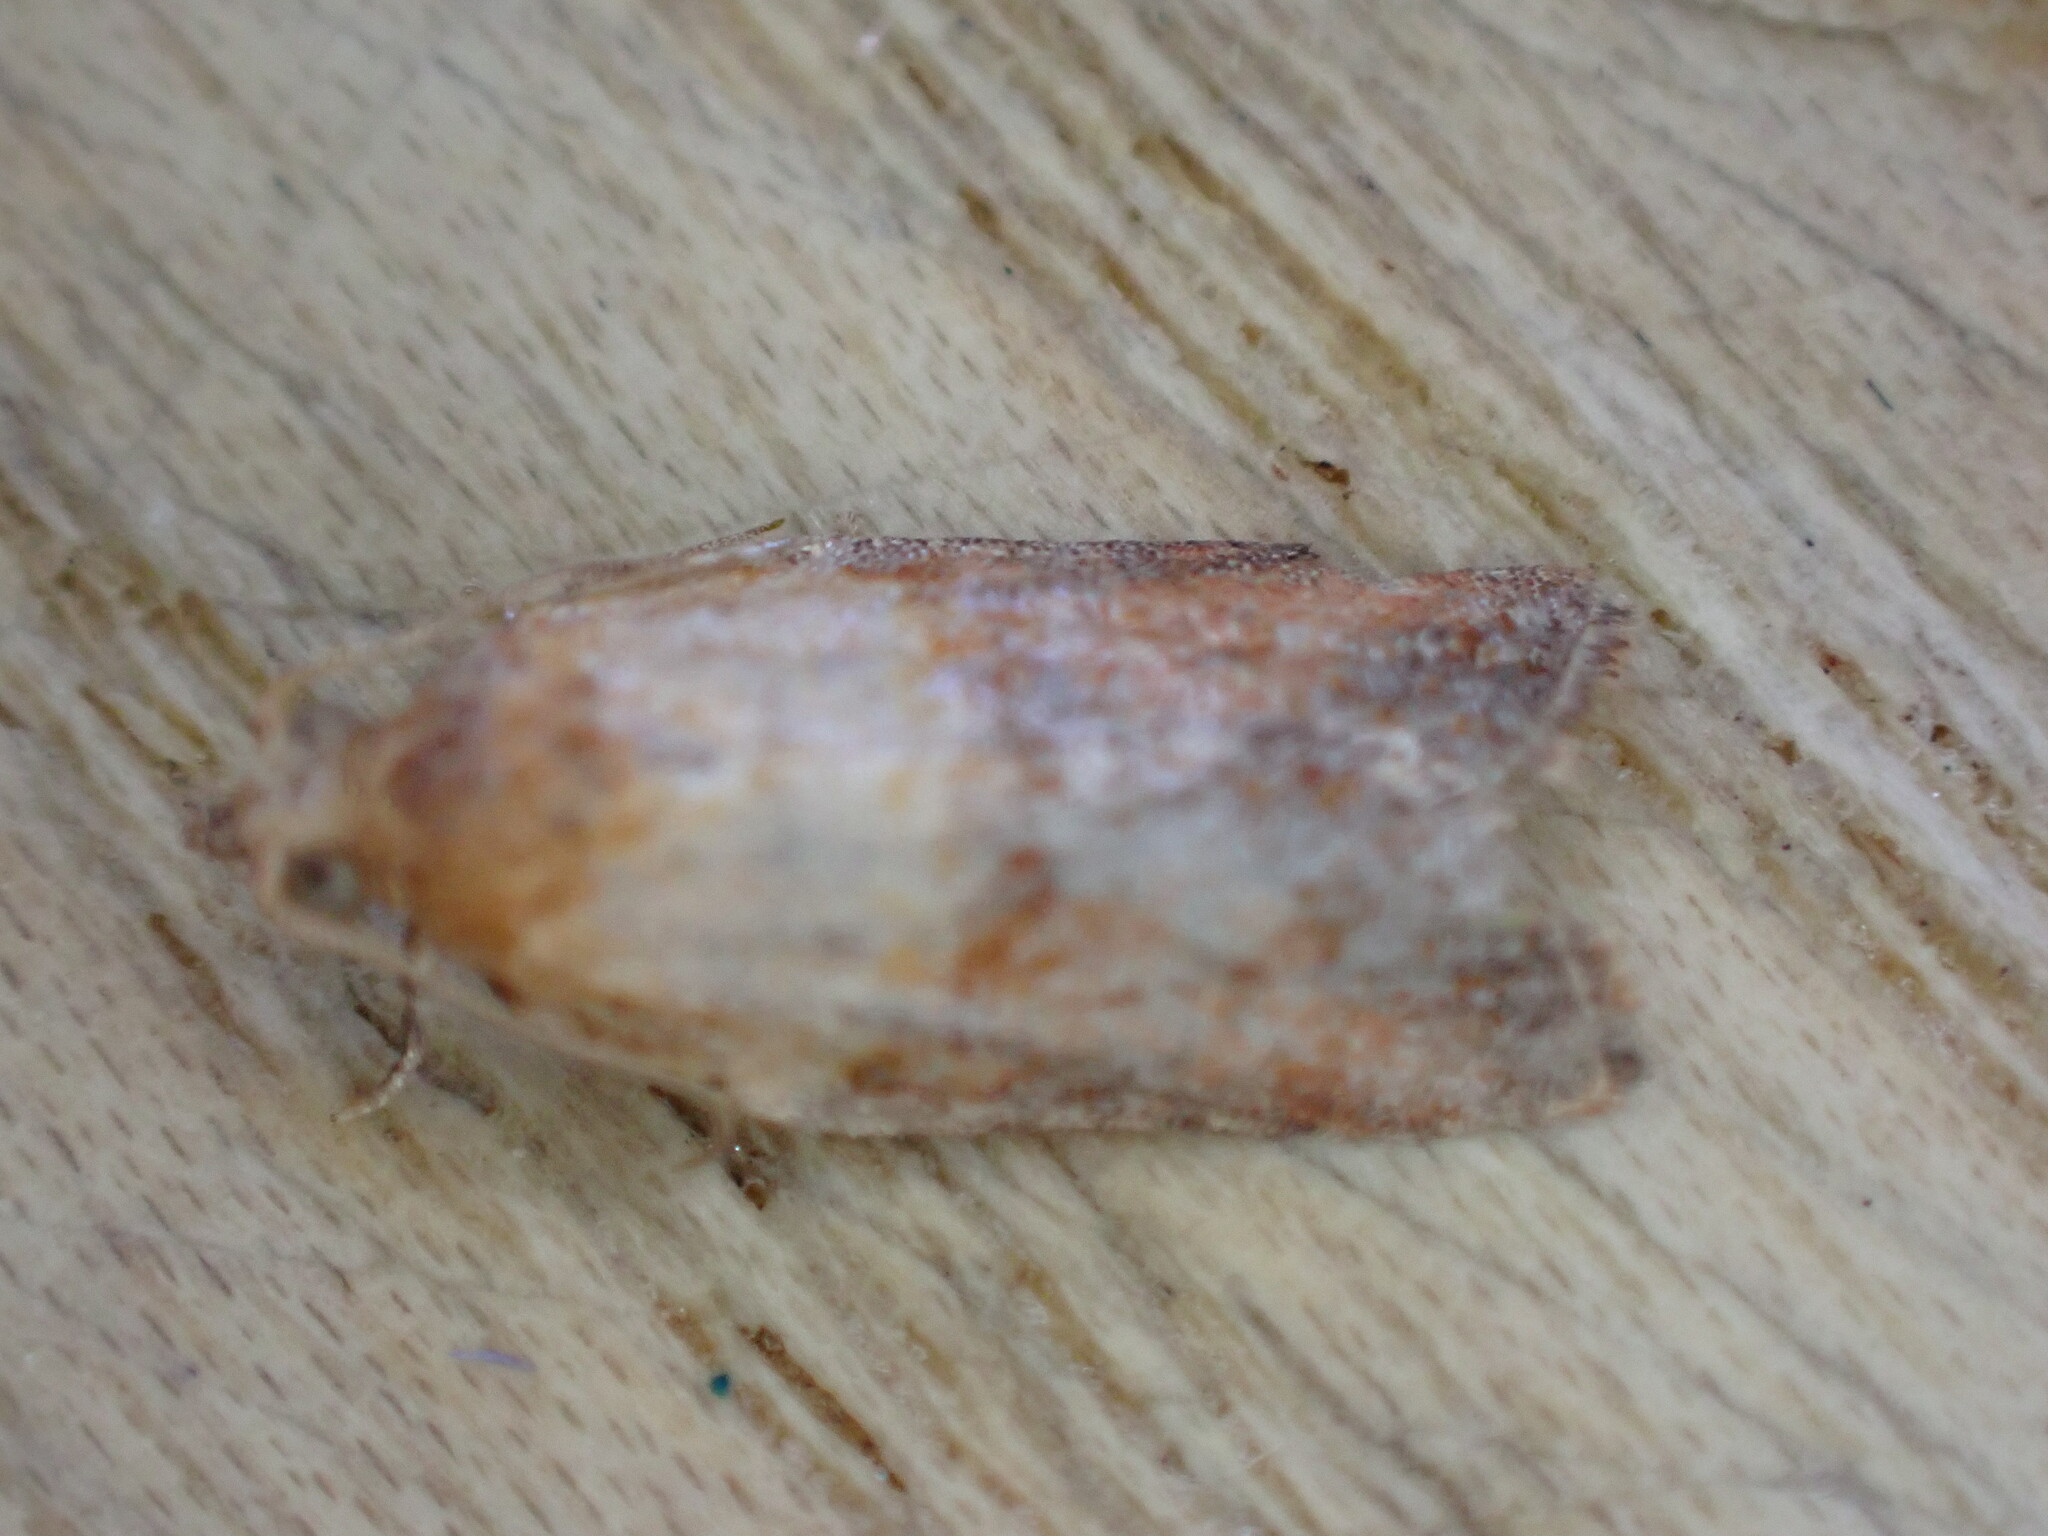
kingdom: Animalia
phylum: Arthropoda
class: Insecta
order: Lepidoptera
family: Tortricidae
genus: Epiphyas
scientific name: Epiphyas postvittana
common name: Light brown apple moth
